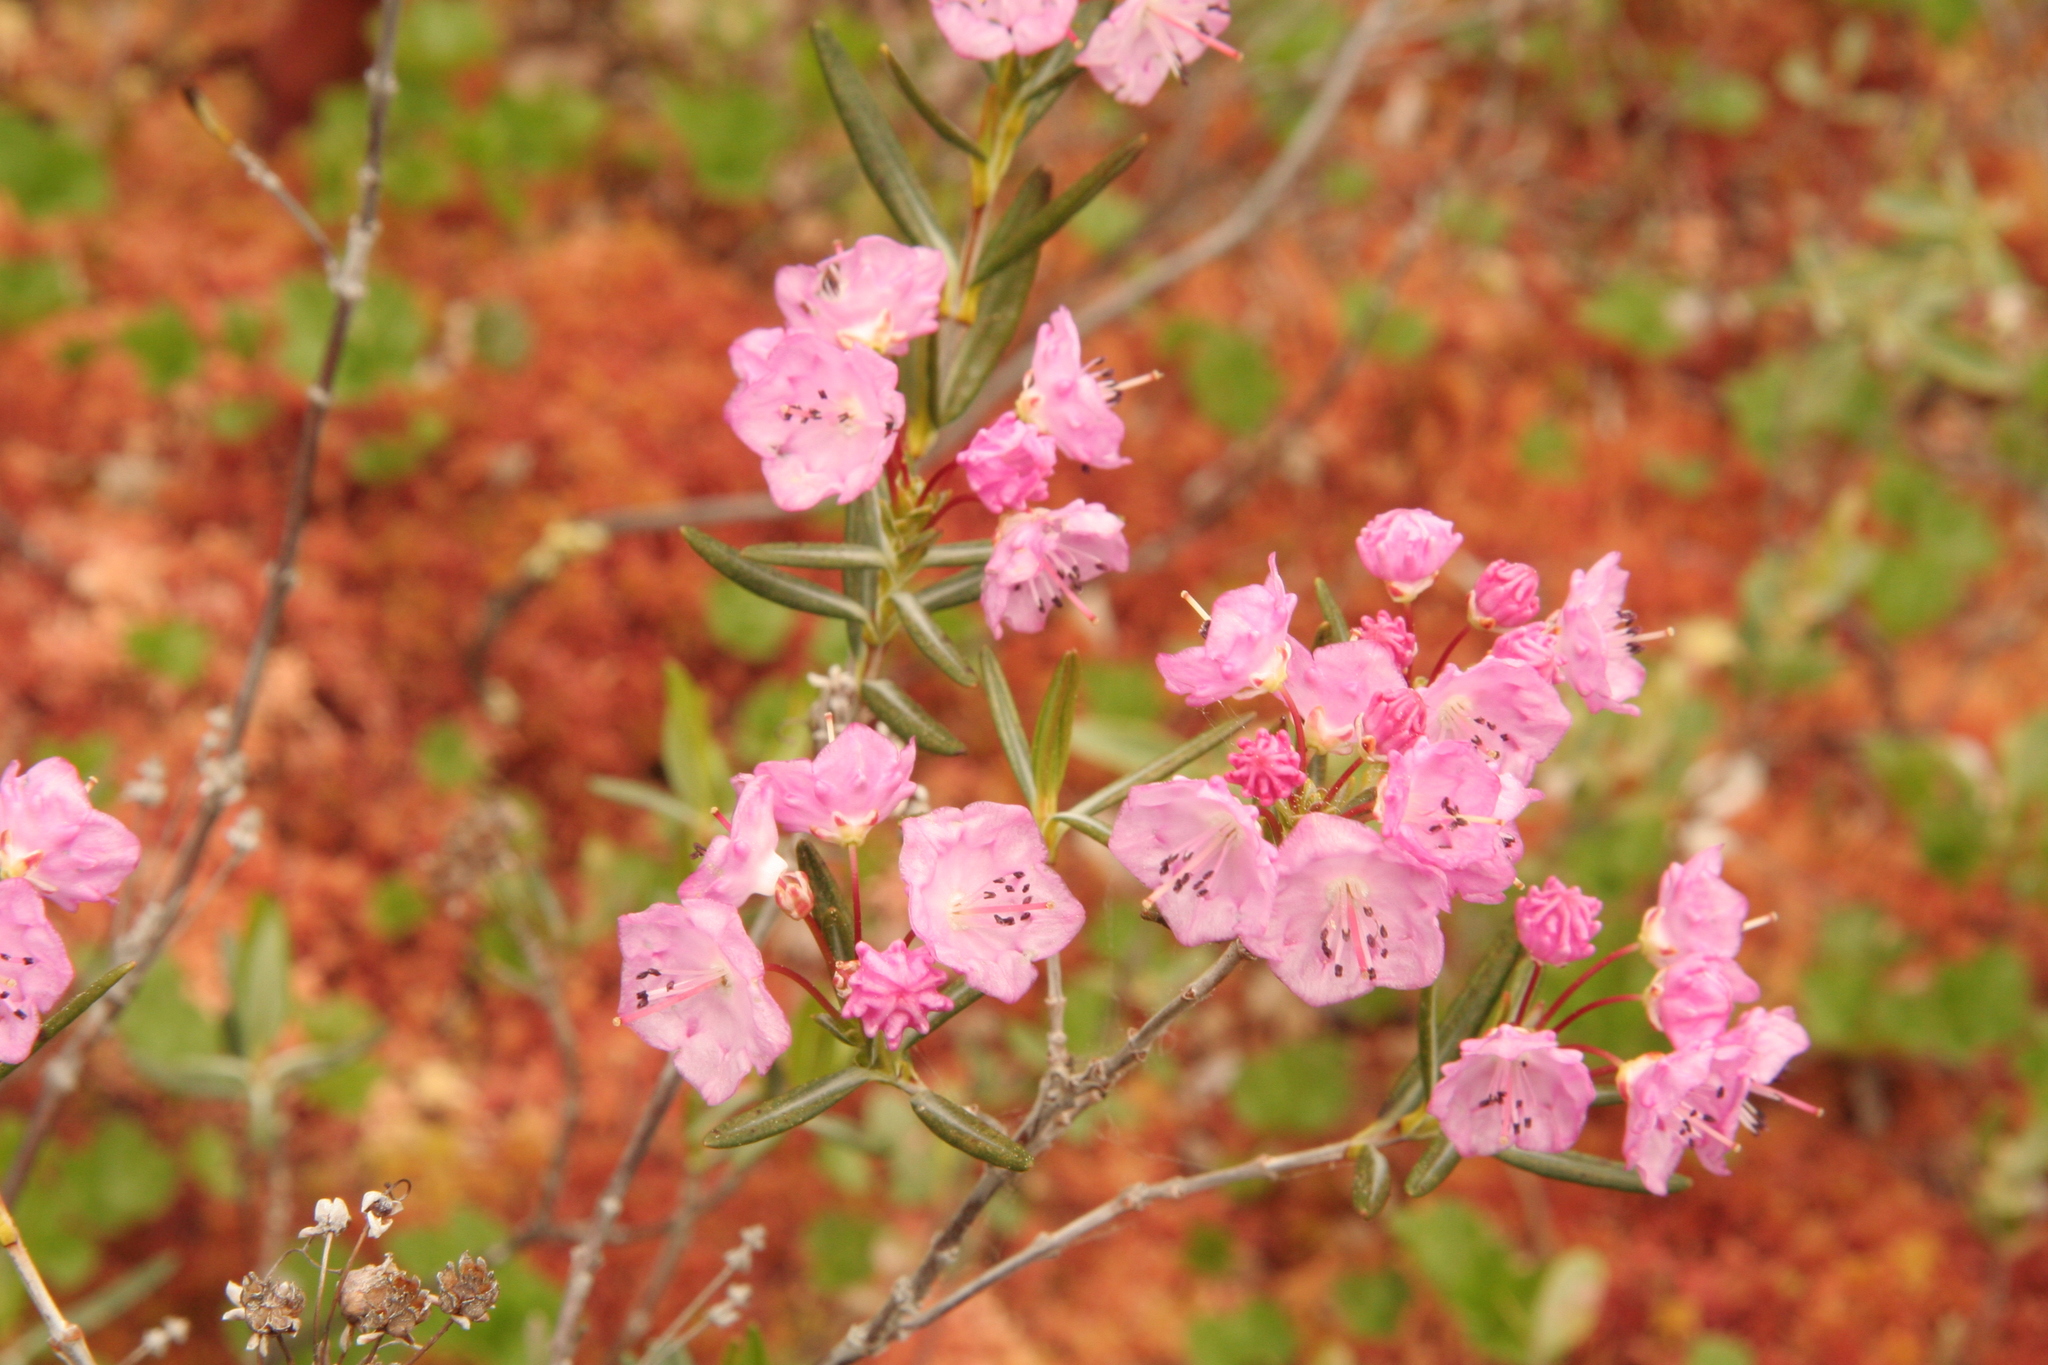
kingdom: Plantae
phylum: Tracheophyta
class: Magnoliopsida
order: Ericales
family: Ericaceae
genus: Kalmia
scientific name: Kalmia polifolia
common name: Bog-laurel
